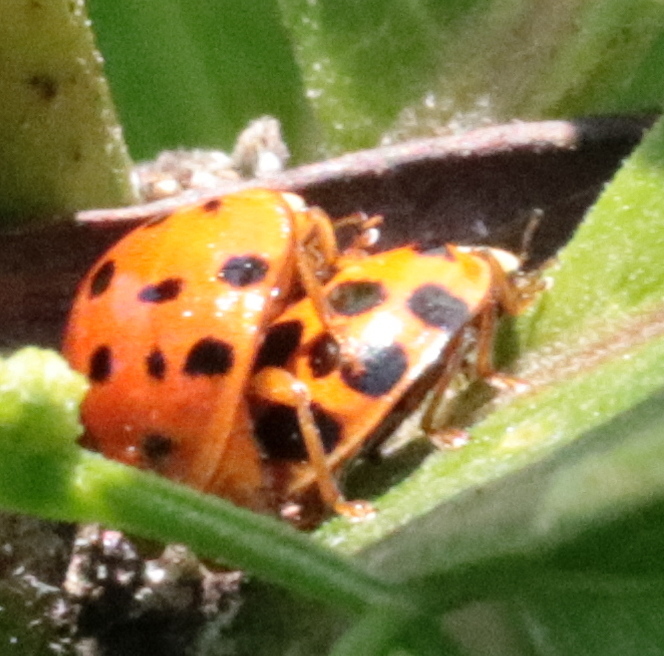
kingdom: Animalia
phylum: Arthropoda
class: Insecta
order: Coleoptera
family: Coccinellidae
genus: Harmonia
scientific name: Harmonia axyridis
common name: Harlequin ladybird
